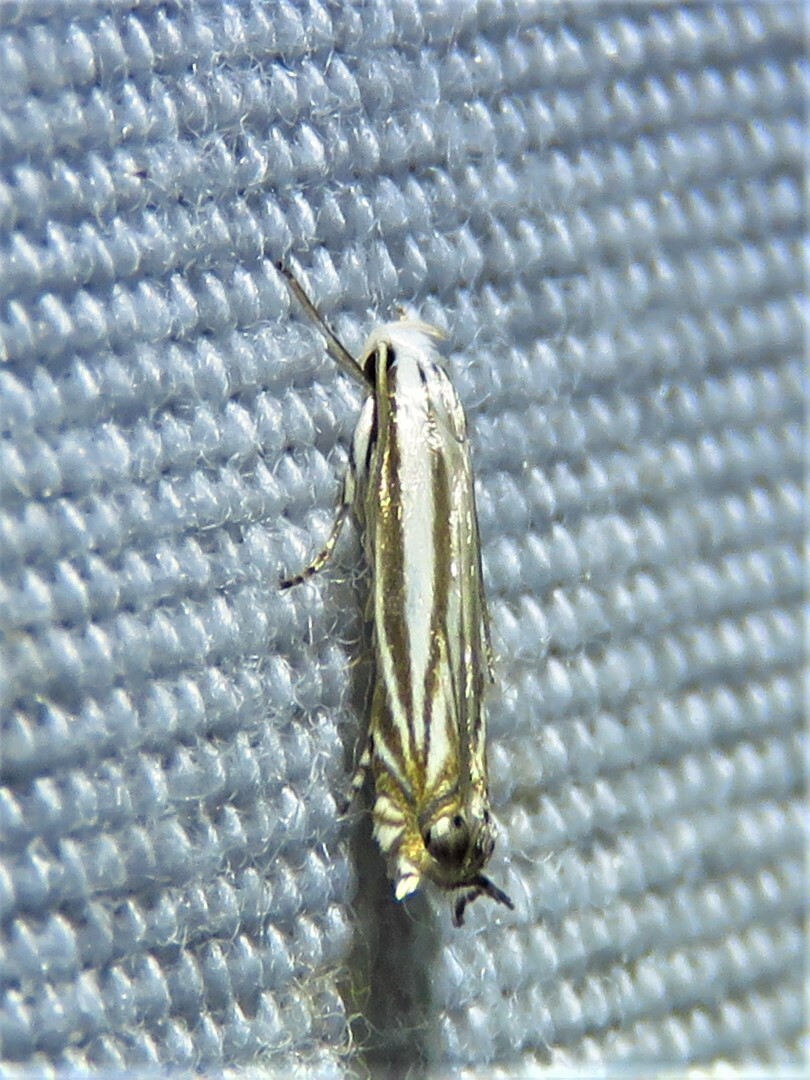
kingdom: Animalia
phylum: Arthropoda
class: Insecta
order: Lepidoptera
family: Gelechiidae
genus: Polyhymno
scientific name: Polyhymno luteostrigella
